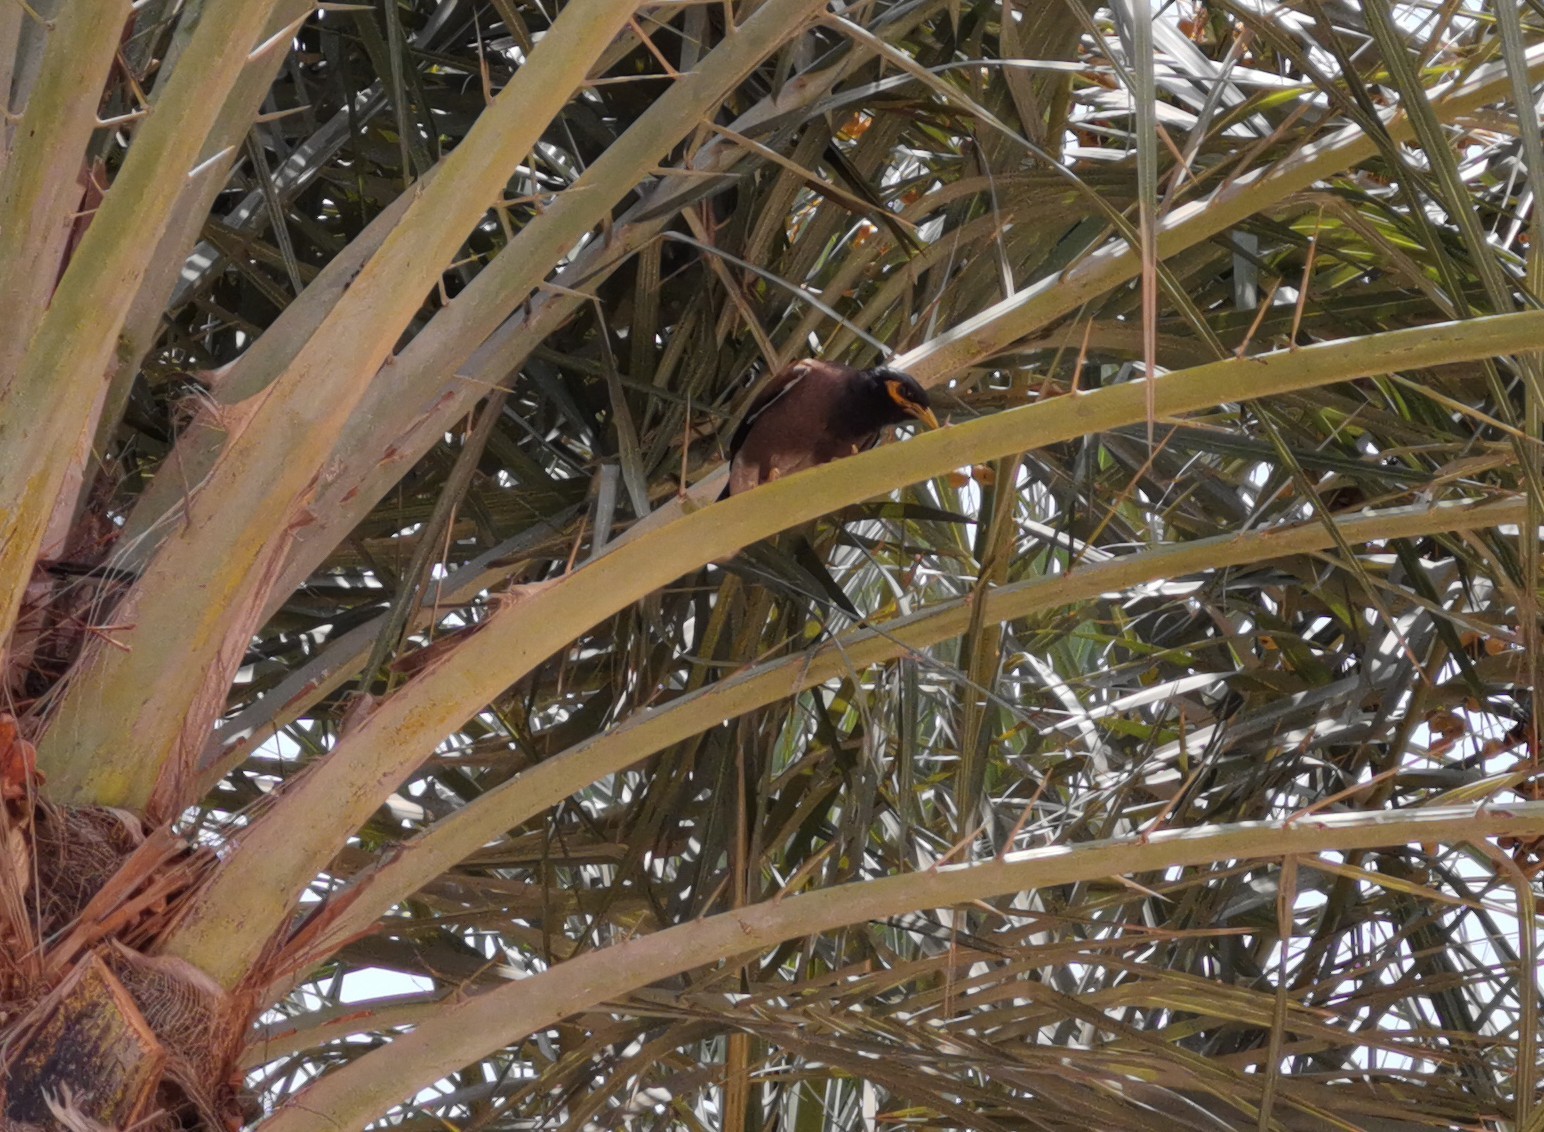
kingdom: Animalia
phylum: Chordata
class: Aves
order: Passeriformes
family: Sturnidae
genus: Acridotheres
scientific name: Acridotheres tristis
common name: Common myna
